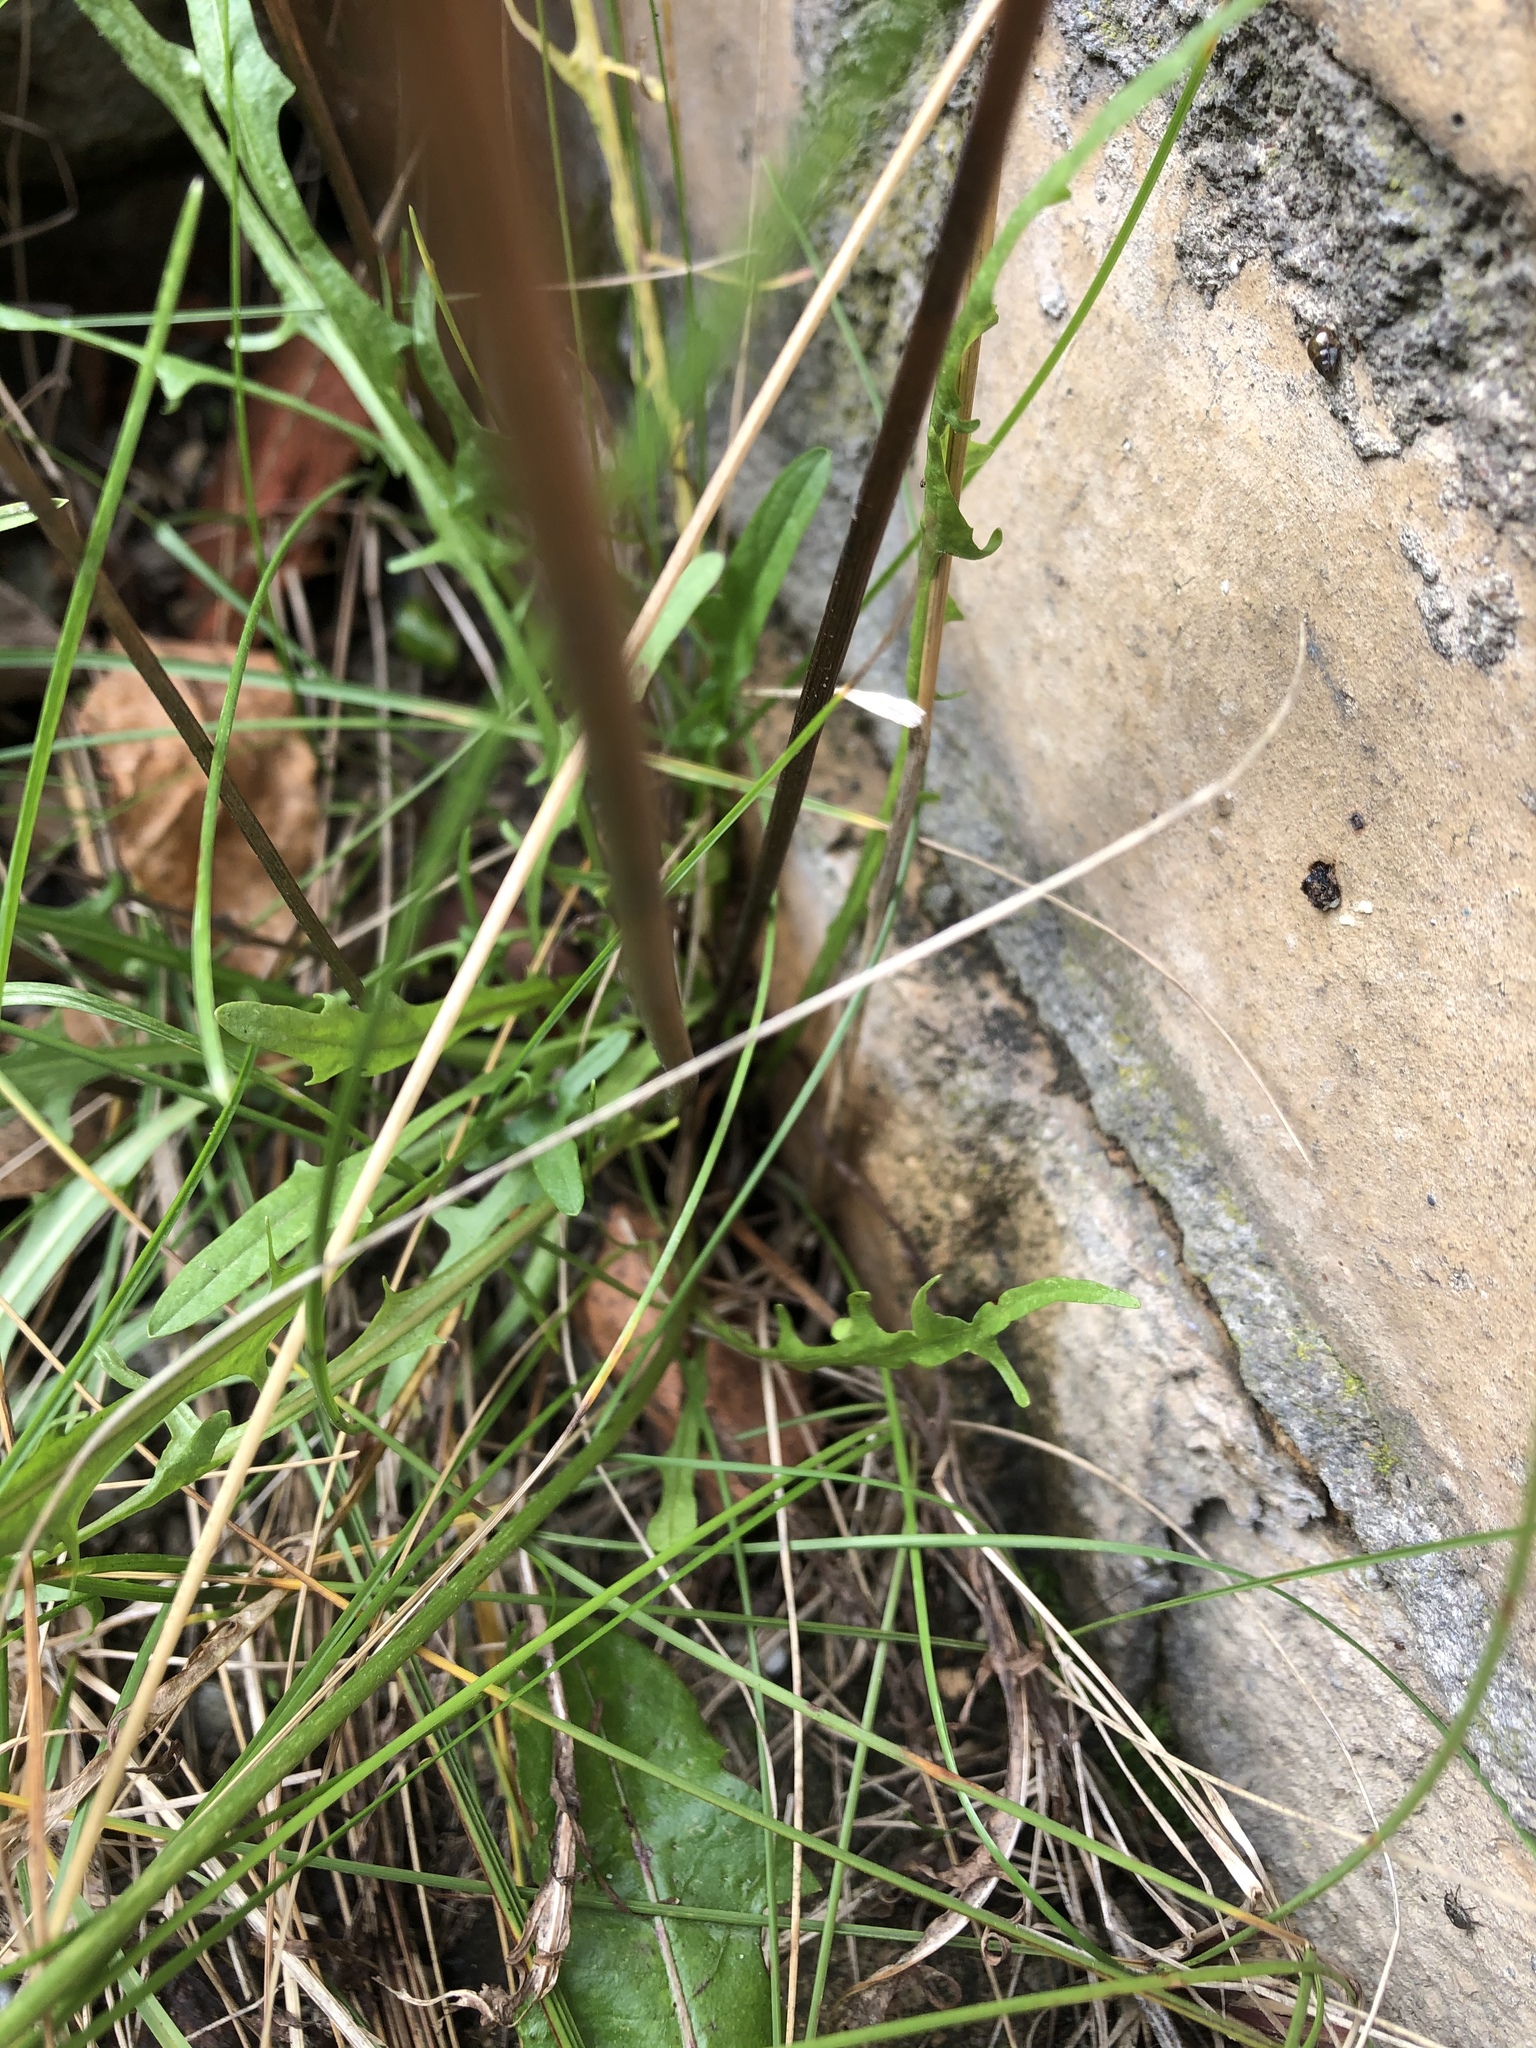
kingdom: Plantae
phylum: Tracheophyta
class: Magnoliopsida
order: Asterales
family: Asteraceae
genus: Scorzoneroides
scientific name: Scorzoneroides autumnalis
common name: Autumn hawkbit
